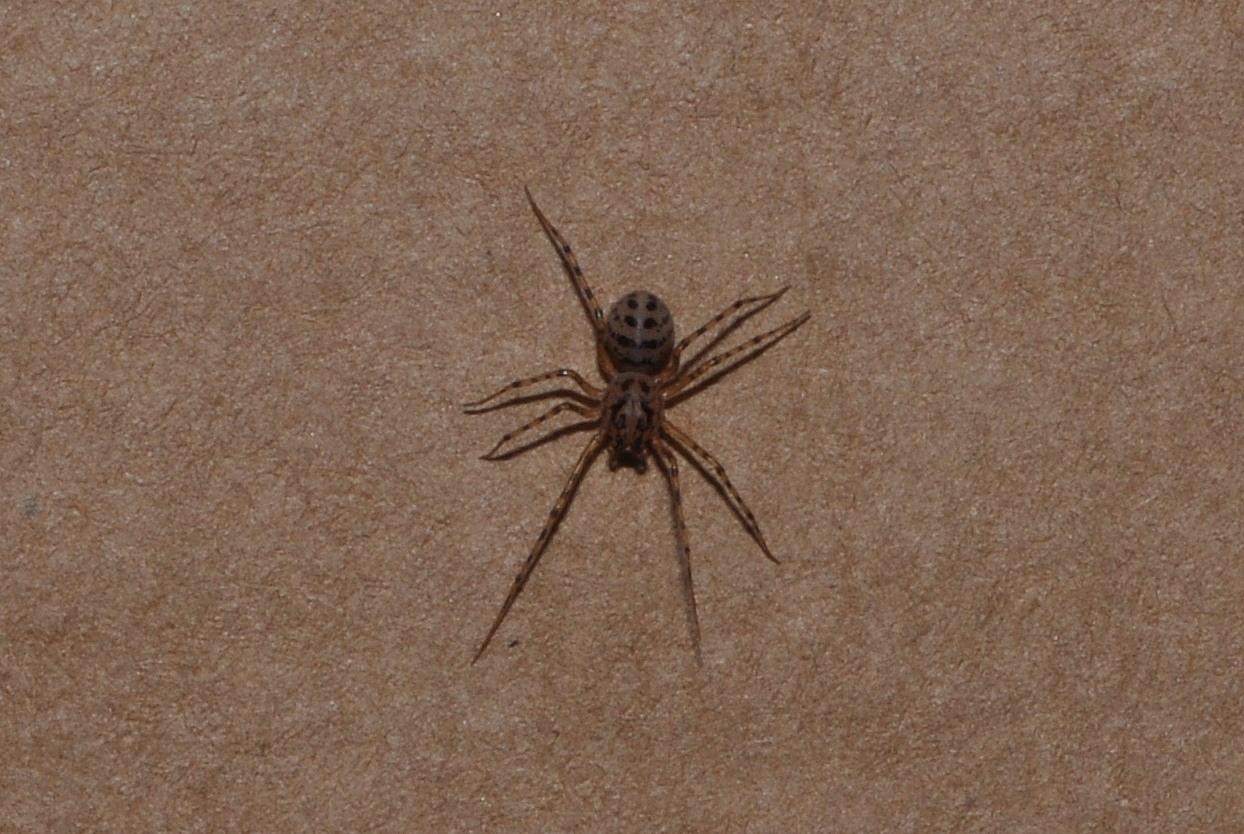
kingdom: Animalia
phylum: Arthropoda
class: Arachnida
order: Araneae
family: Scytodidae
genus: Scytodes
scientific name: Scytodes thoracica
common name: Spitting spider
